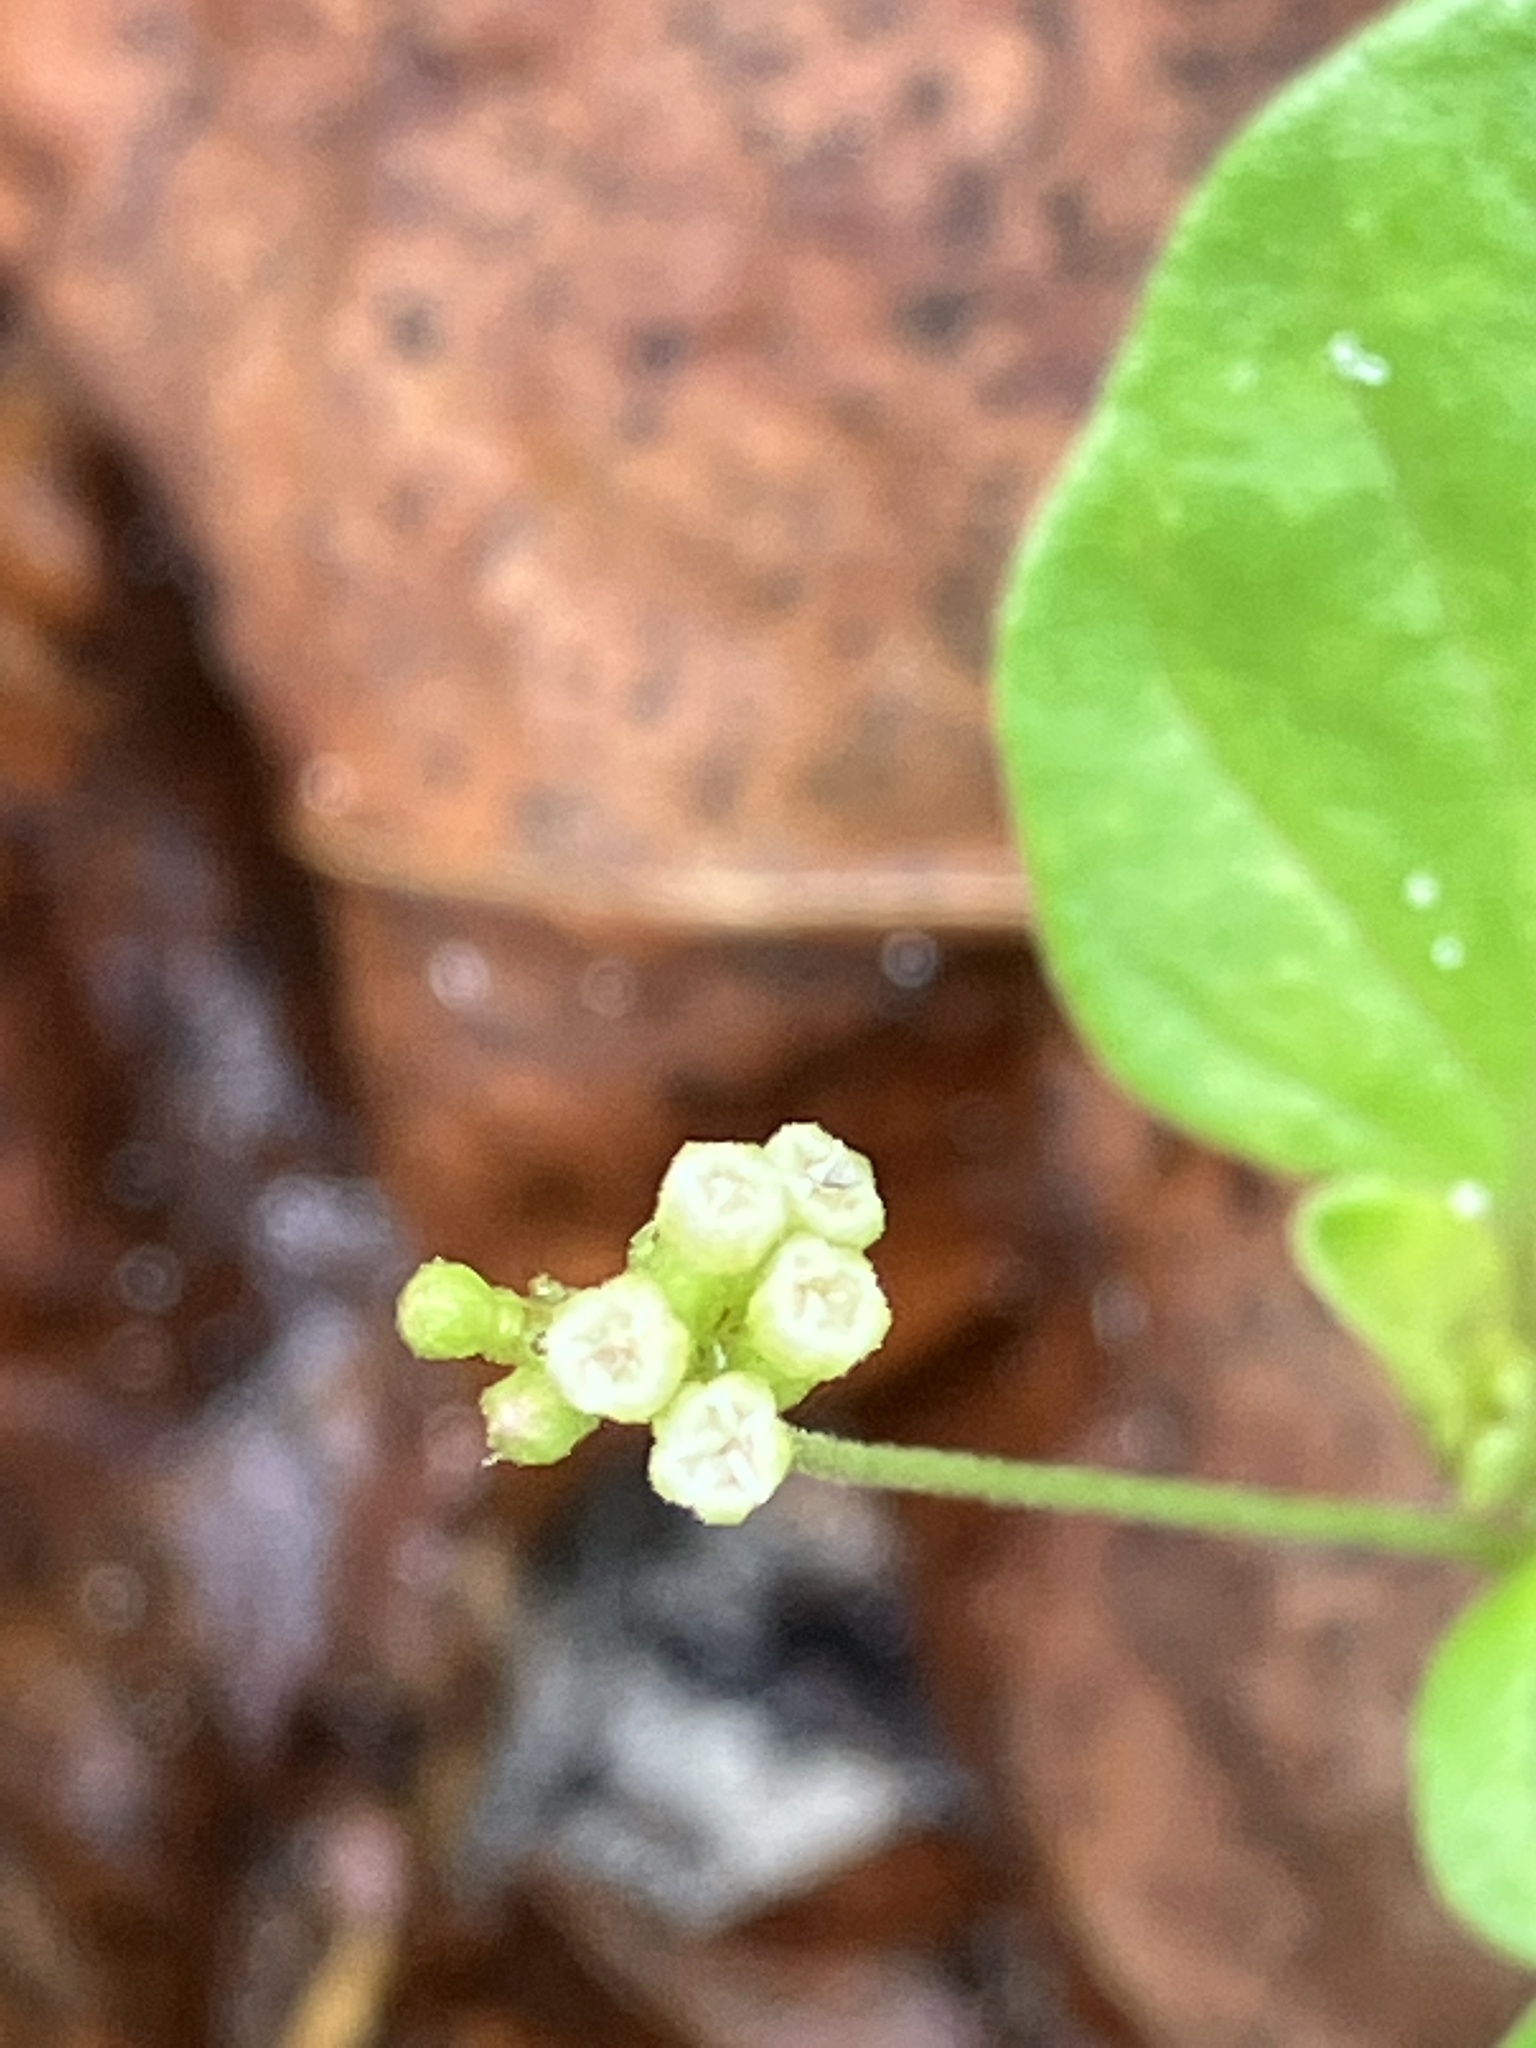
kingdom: Plantae
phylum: Tracheophyta
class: Magnoliopsida
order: Caryophyllales
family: Nyctaginaceae
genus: Boerhavia
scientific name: Boerhavia repens
